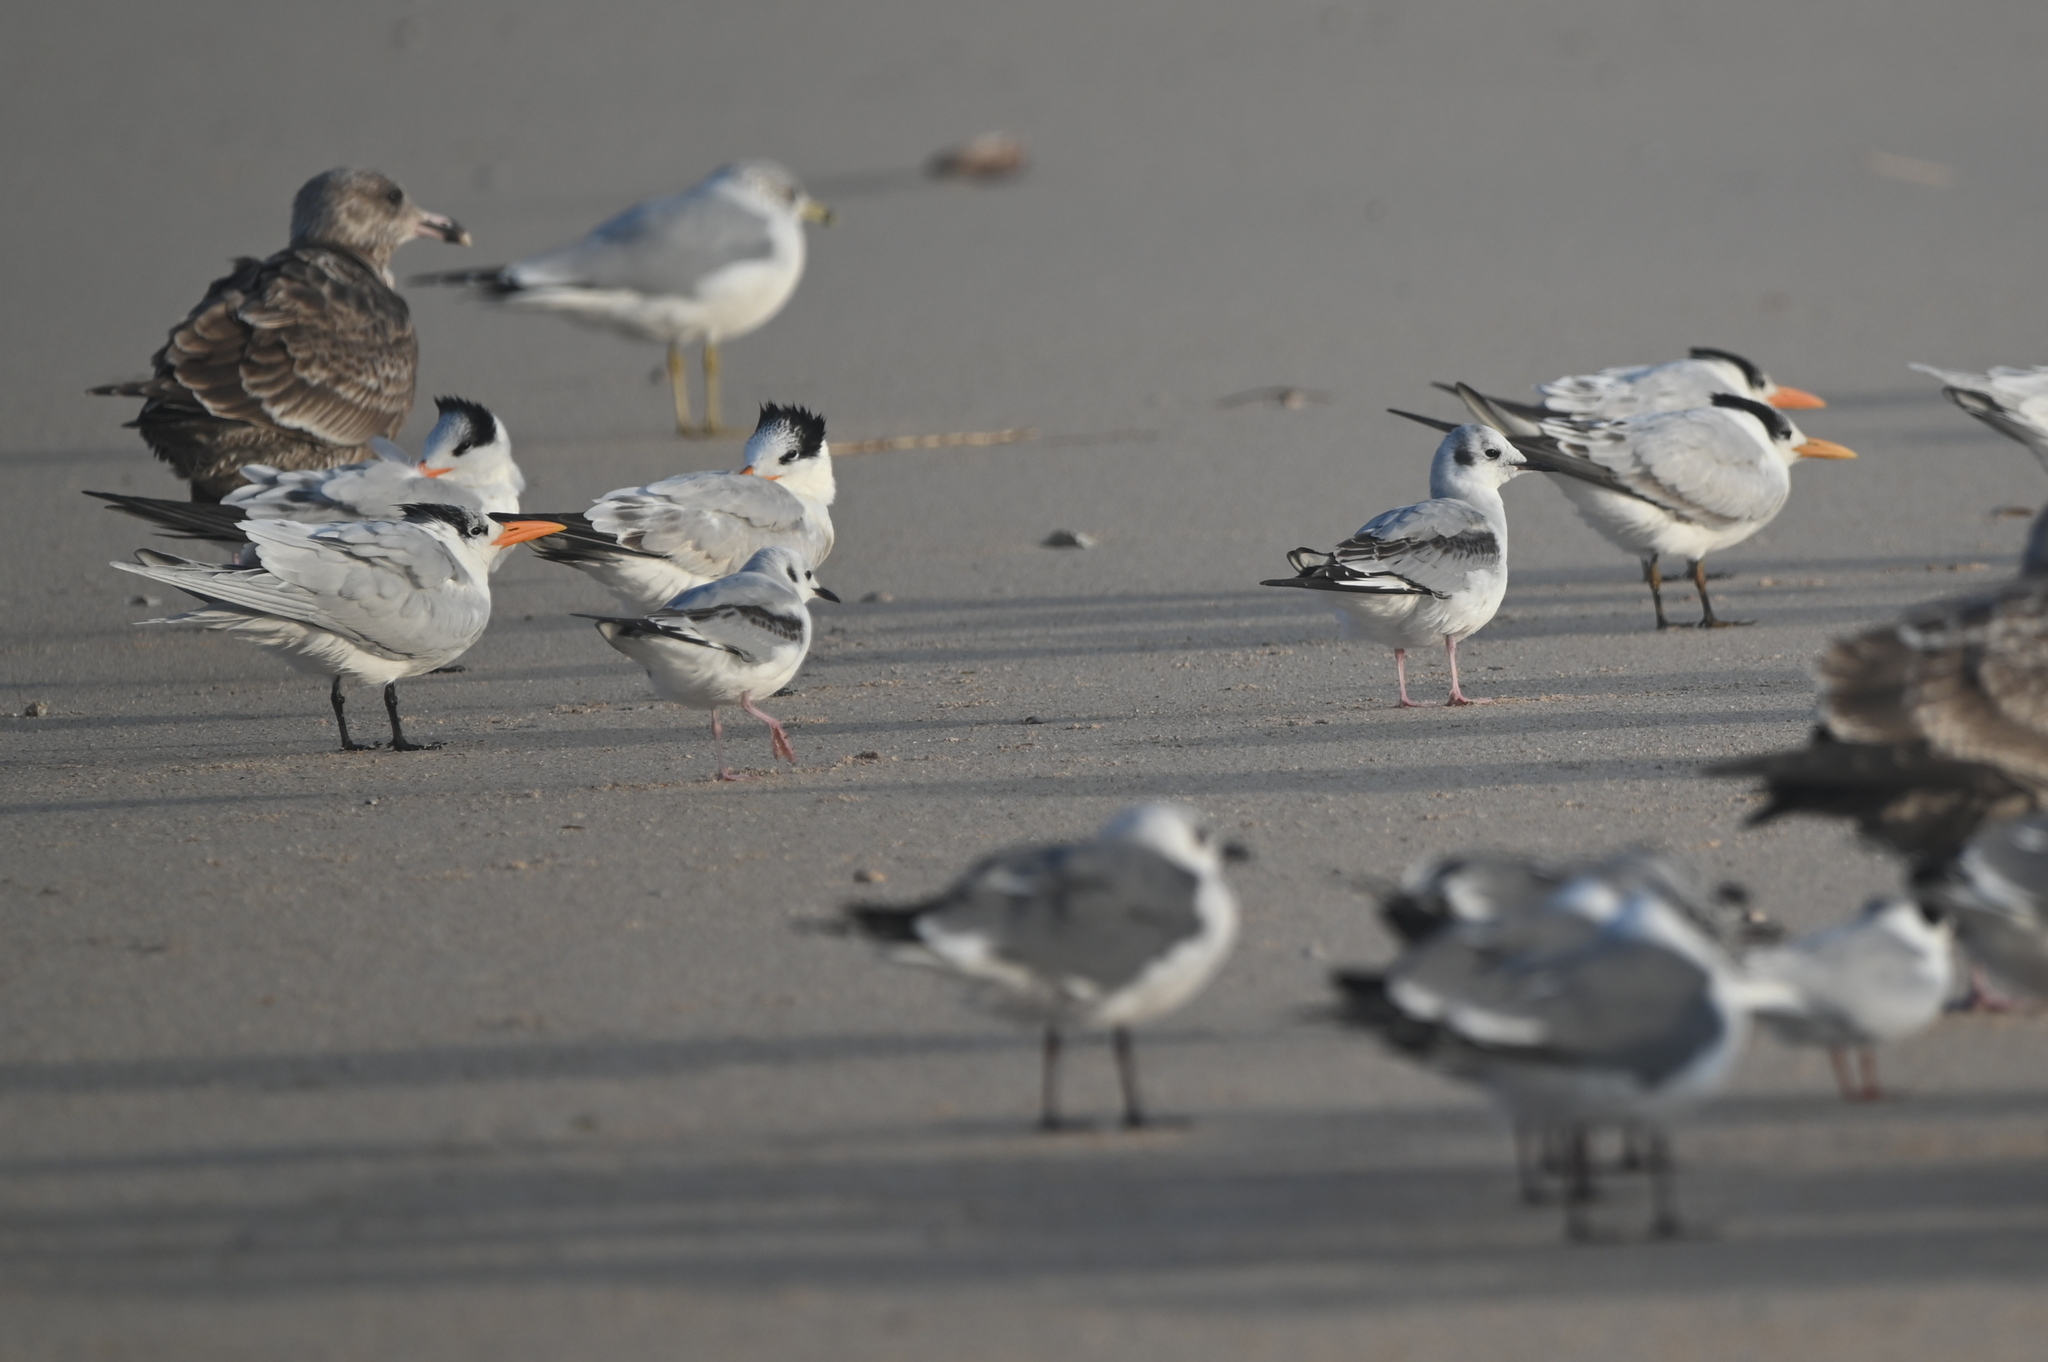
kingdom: Animalia
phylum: Chordata
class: Aves
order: Charadriiformes
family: Laridae
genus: Chroicocephalus
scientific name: Chroicocephalus philadelphia
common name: Bonaparte's gull
